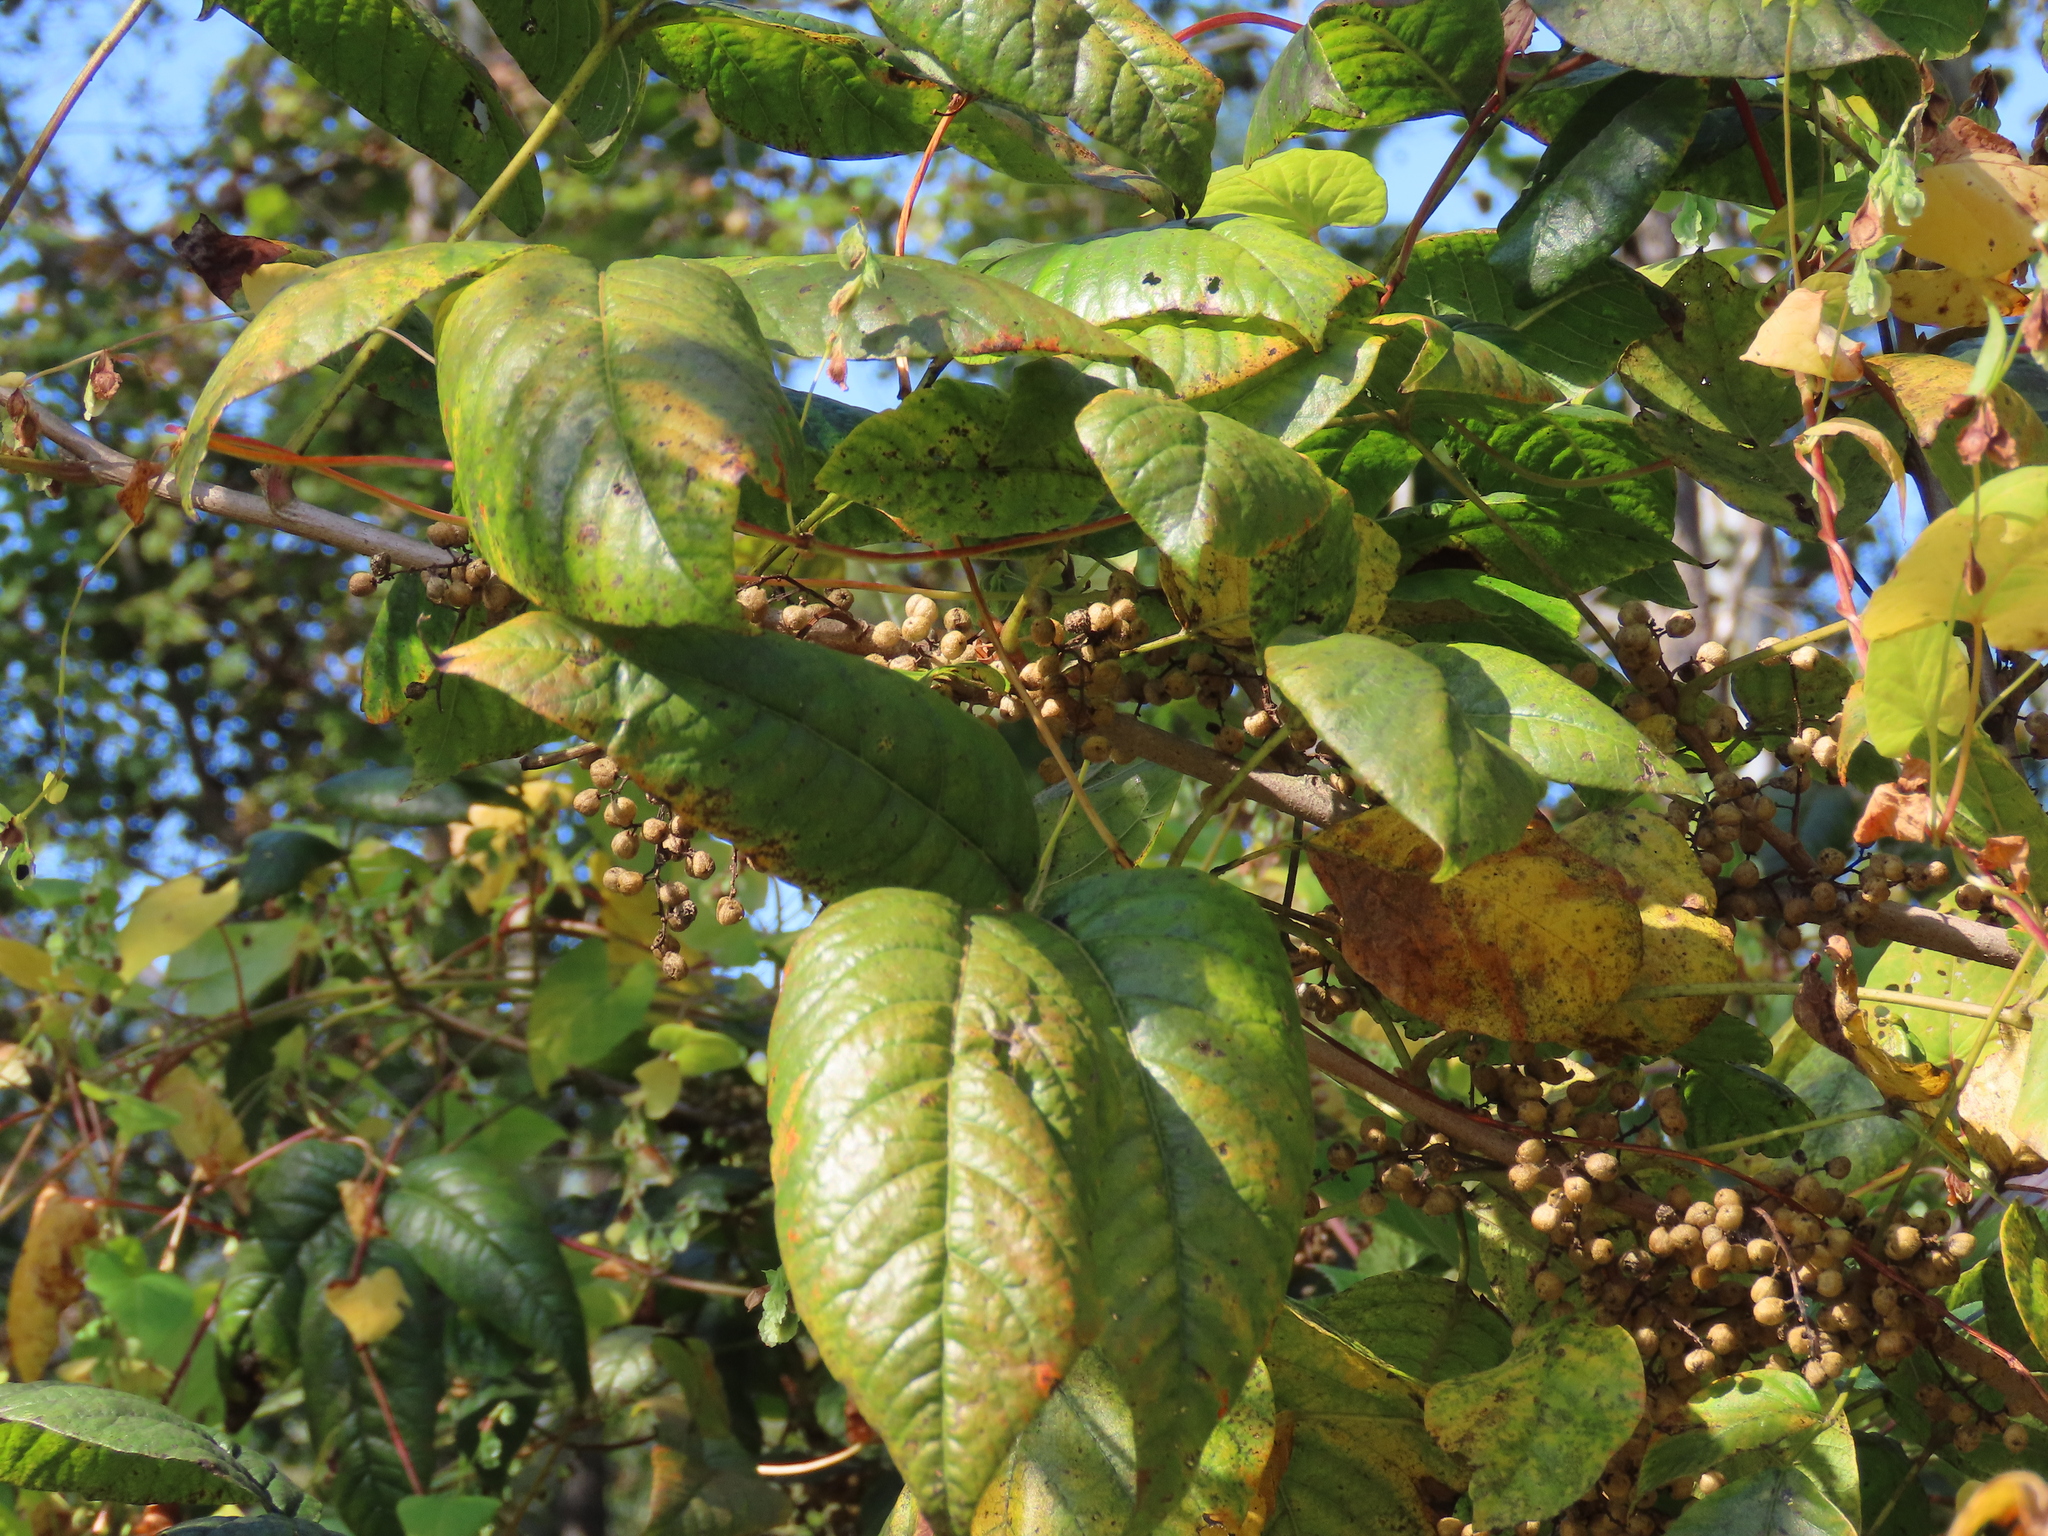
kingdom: Plantae
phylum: Tracheophyta
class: Magnoliopsida
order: Sapindales
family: Anacardiaceae
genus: Toxicodendron
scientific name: Toxicodendron radicans
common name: Poison ivy
